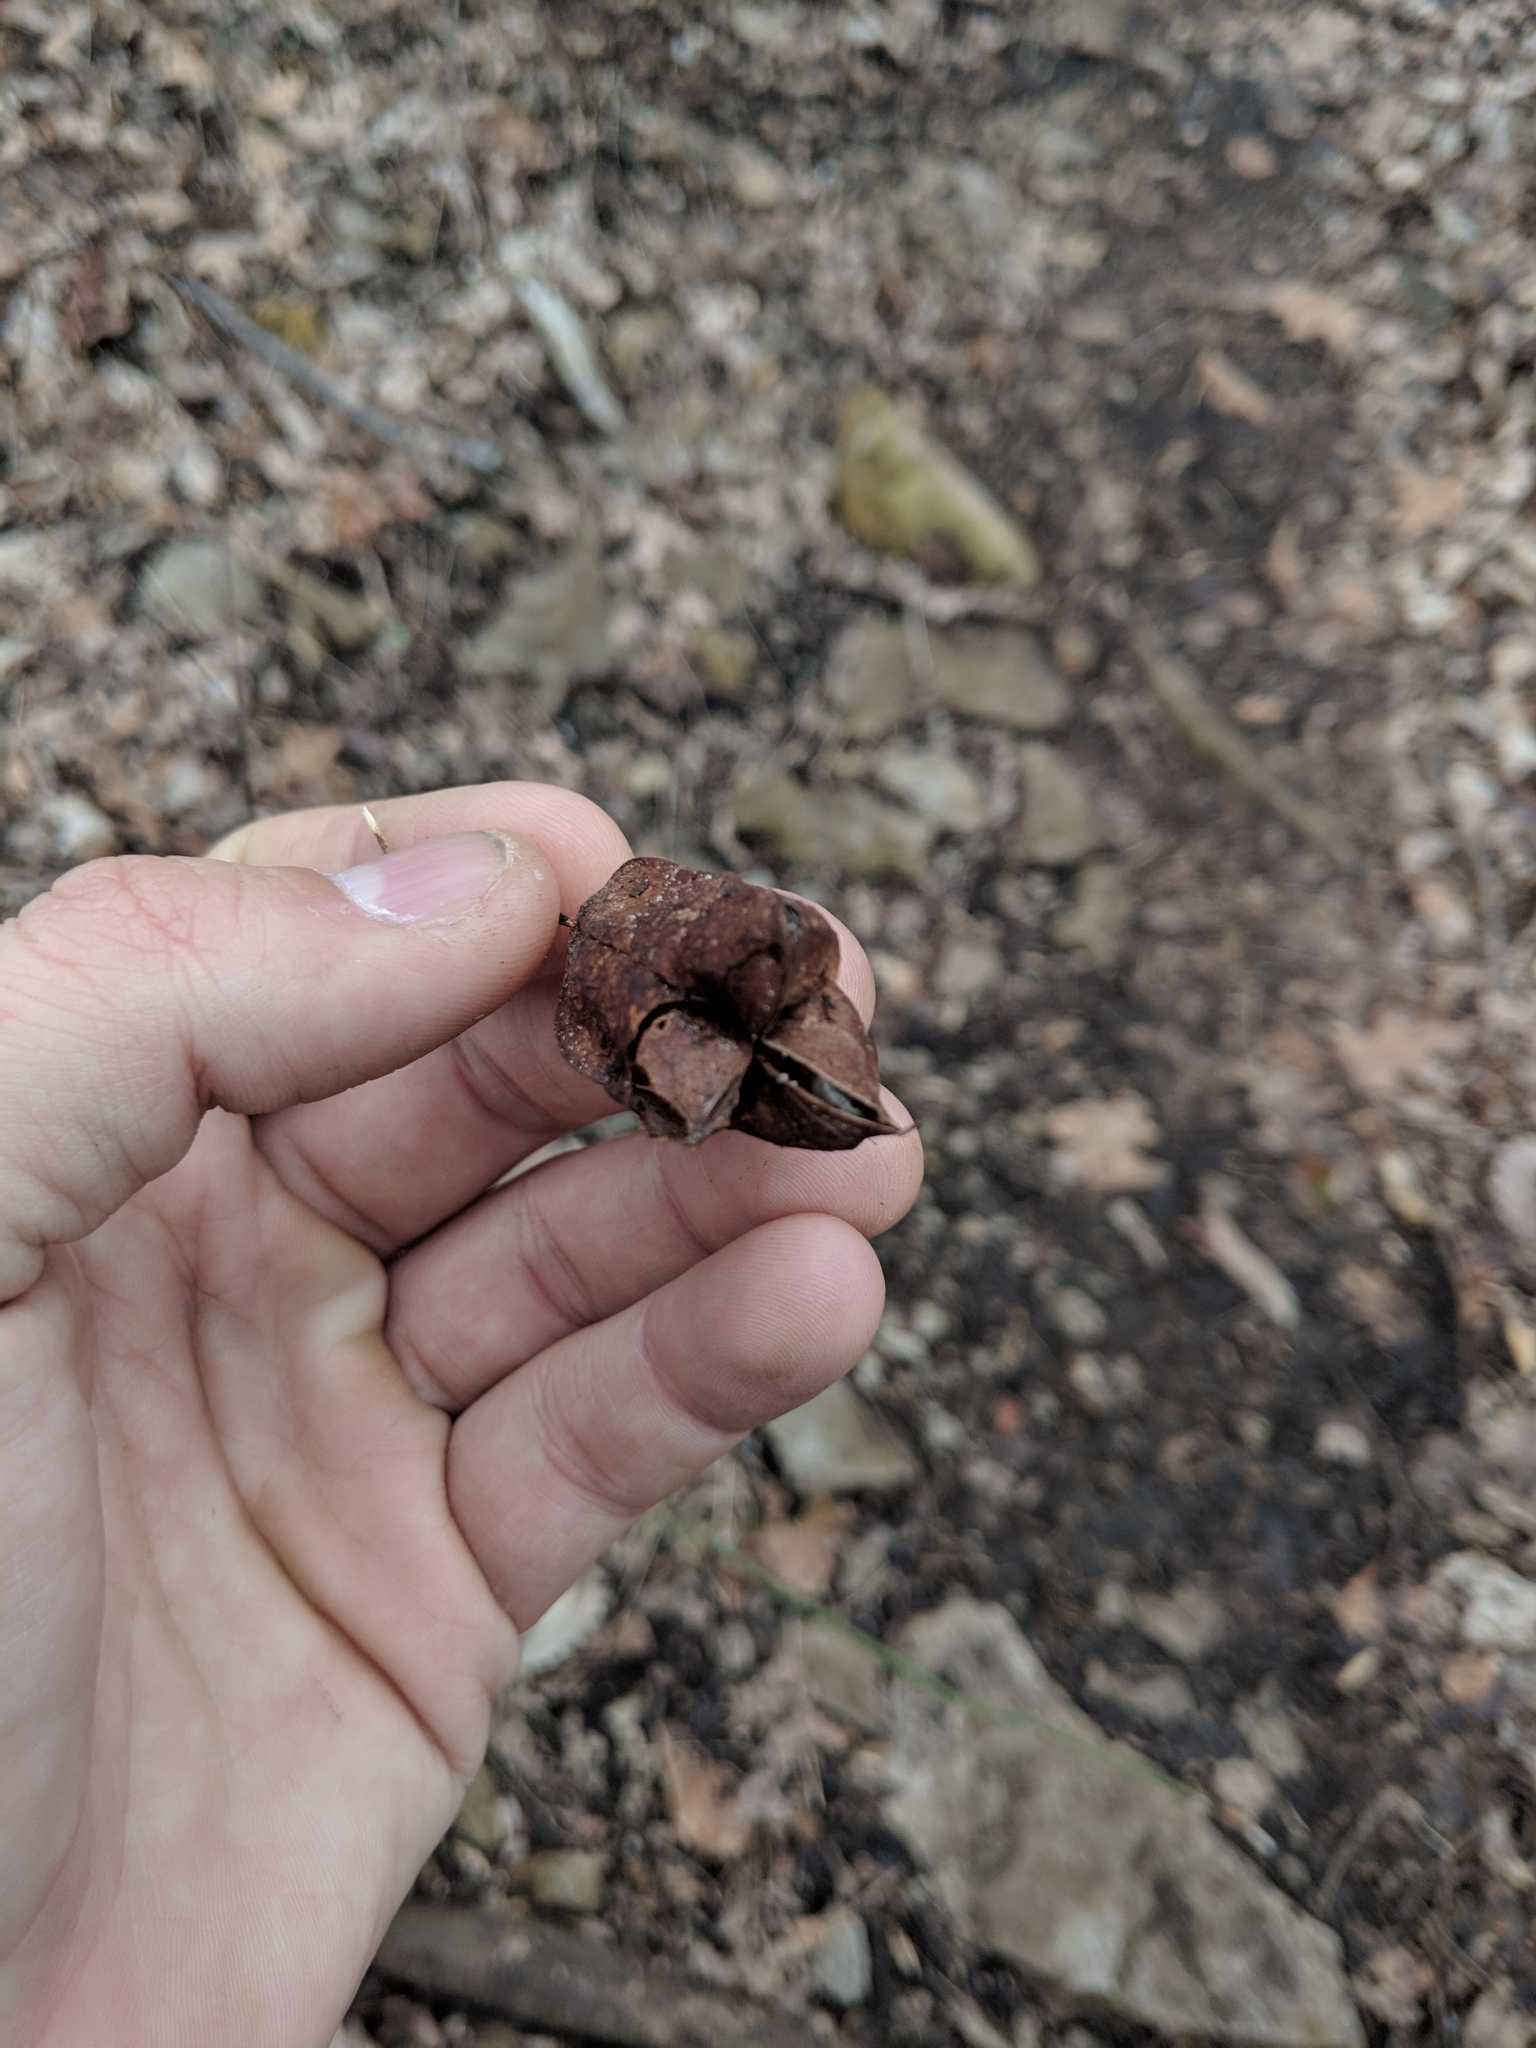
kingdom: Plantae
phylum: Tracheophyta
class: Magnoliopsida
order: Crossosomatales
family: Staphyleaceae
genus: Staphylea
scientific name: Staphylea trifolia
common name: American bladdernut
